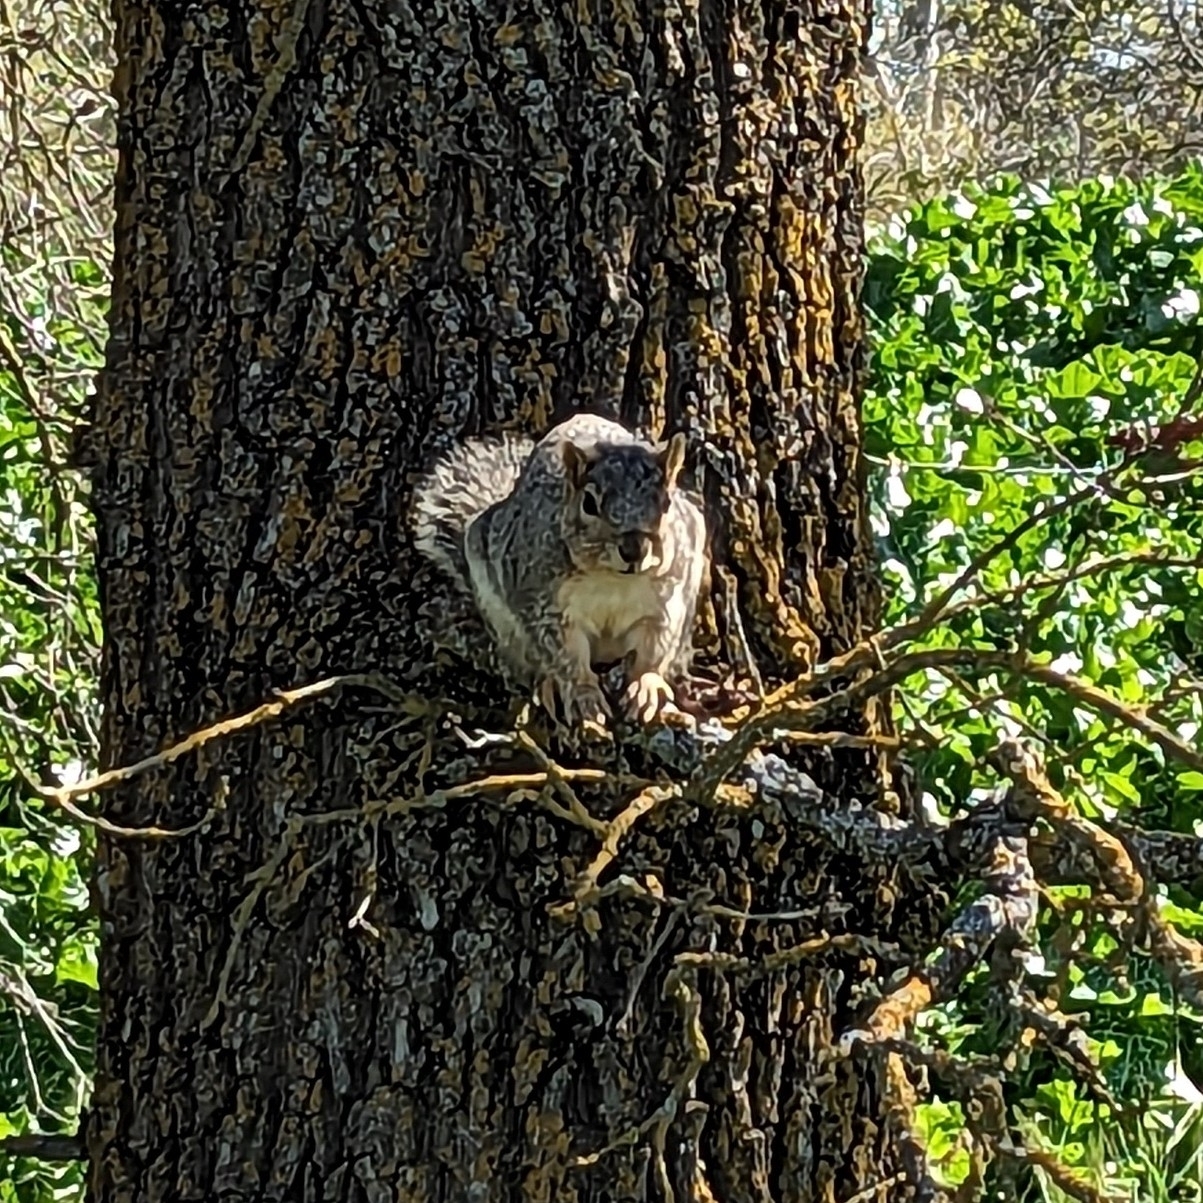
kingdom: Animalia
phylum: Chordata
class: Mammalia
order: Rodentia
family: Sciuridae
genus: Sciurus
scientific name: Sciurus niger
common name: Fox squirrel
